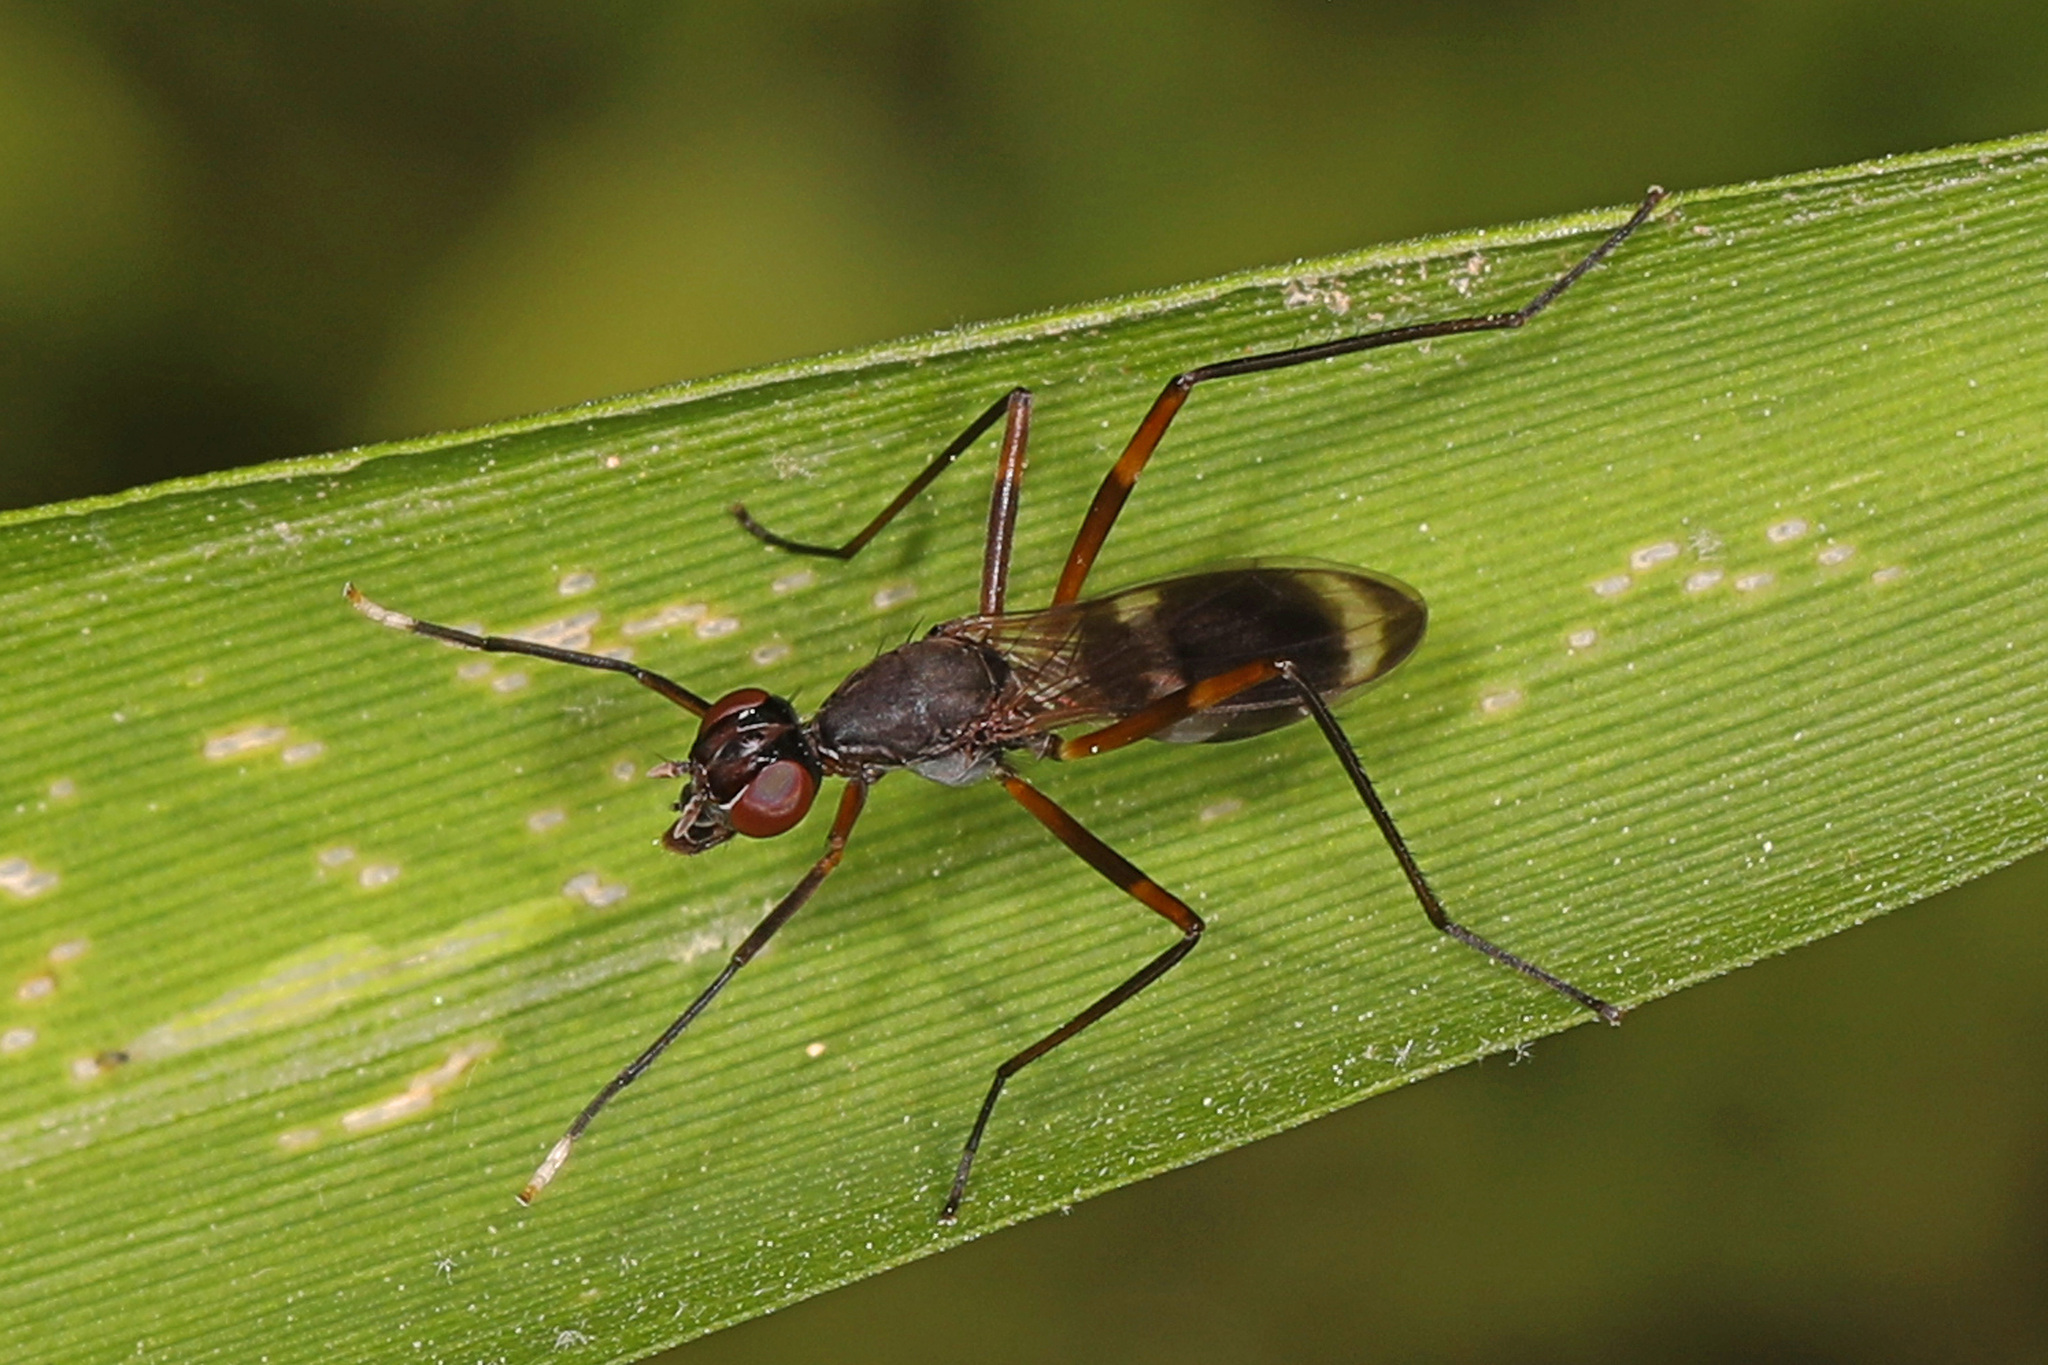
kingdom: Animalia
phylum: Arthropoda
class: Insecta
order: Diptera
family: Micropezidae
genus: Taeniaptera
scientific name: Taeniaptera trivittata
